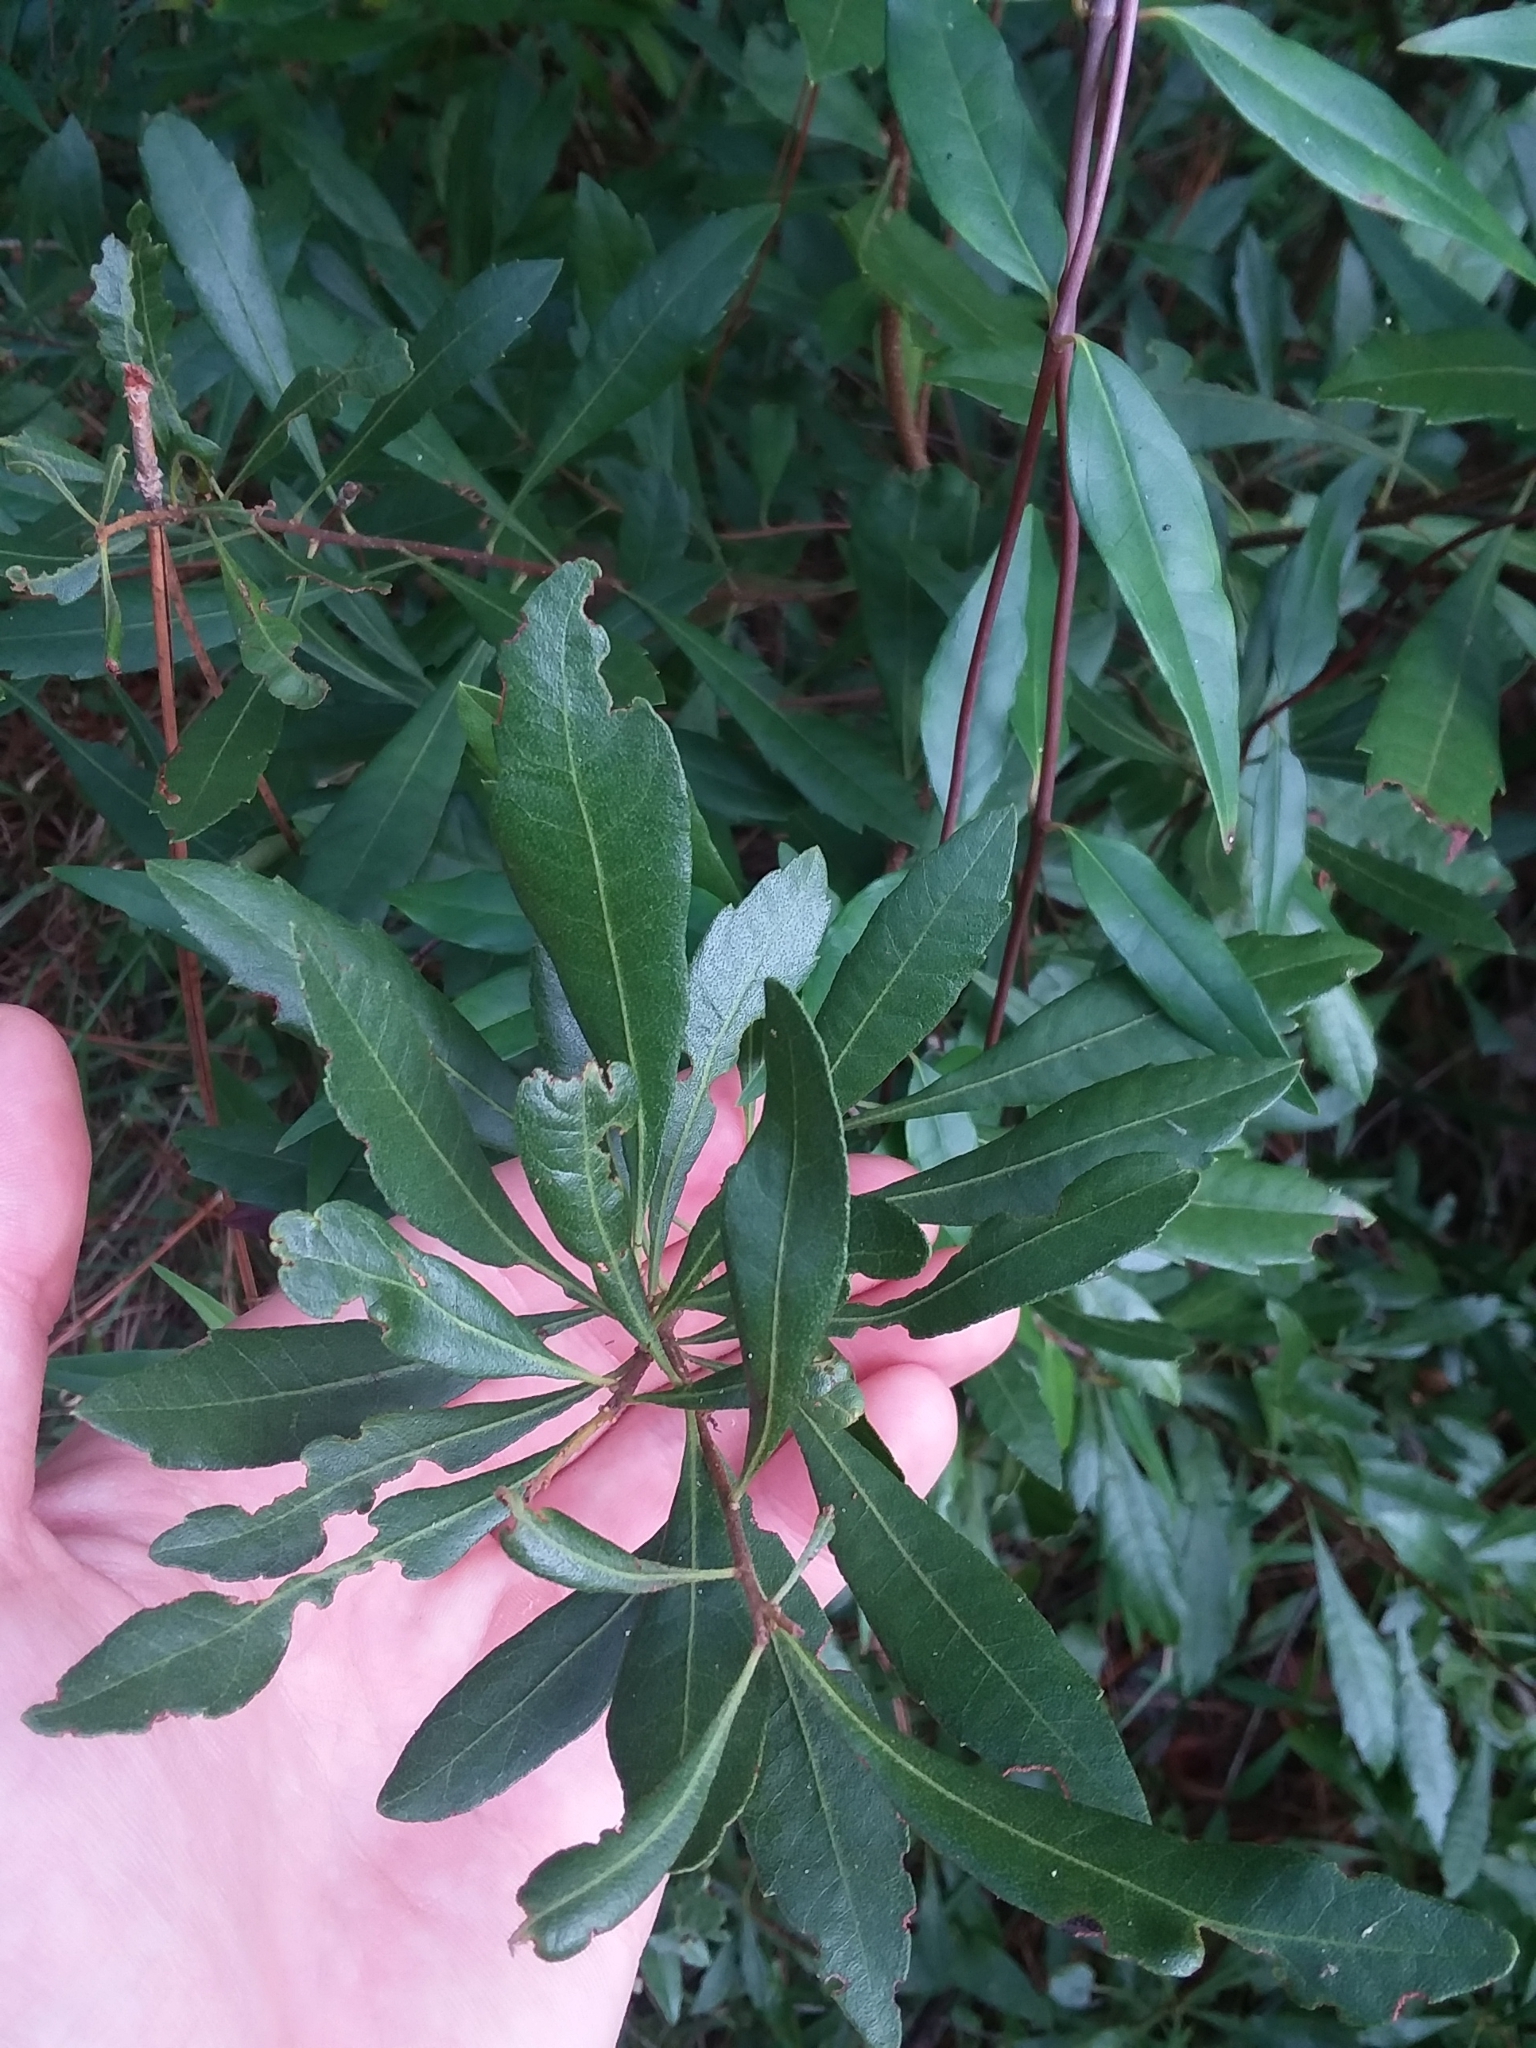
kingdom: Plantae
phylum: Tracheophyta
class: Magnoliopsida
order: Fagales
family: Myricaceae
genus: Morella
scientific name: Morella cerifera
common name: Wax myrtle
